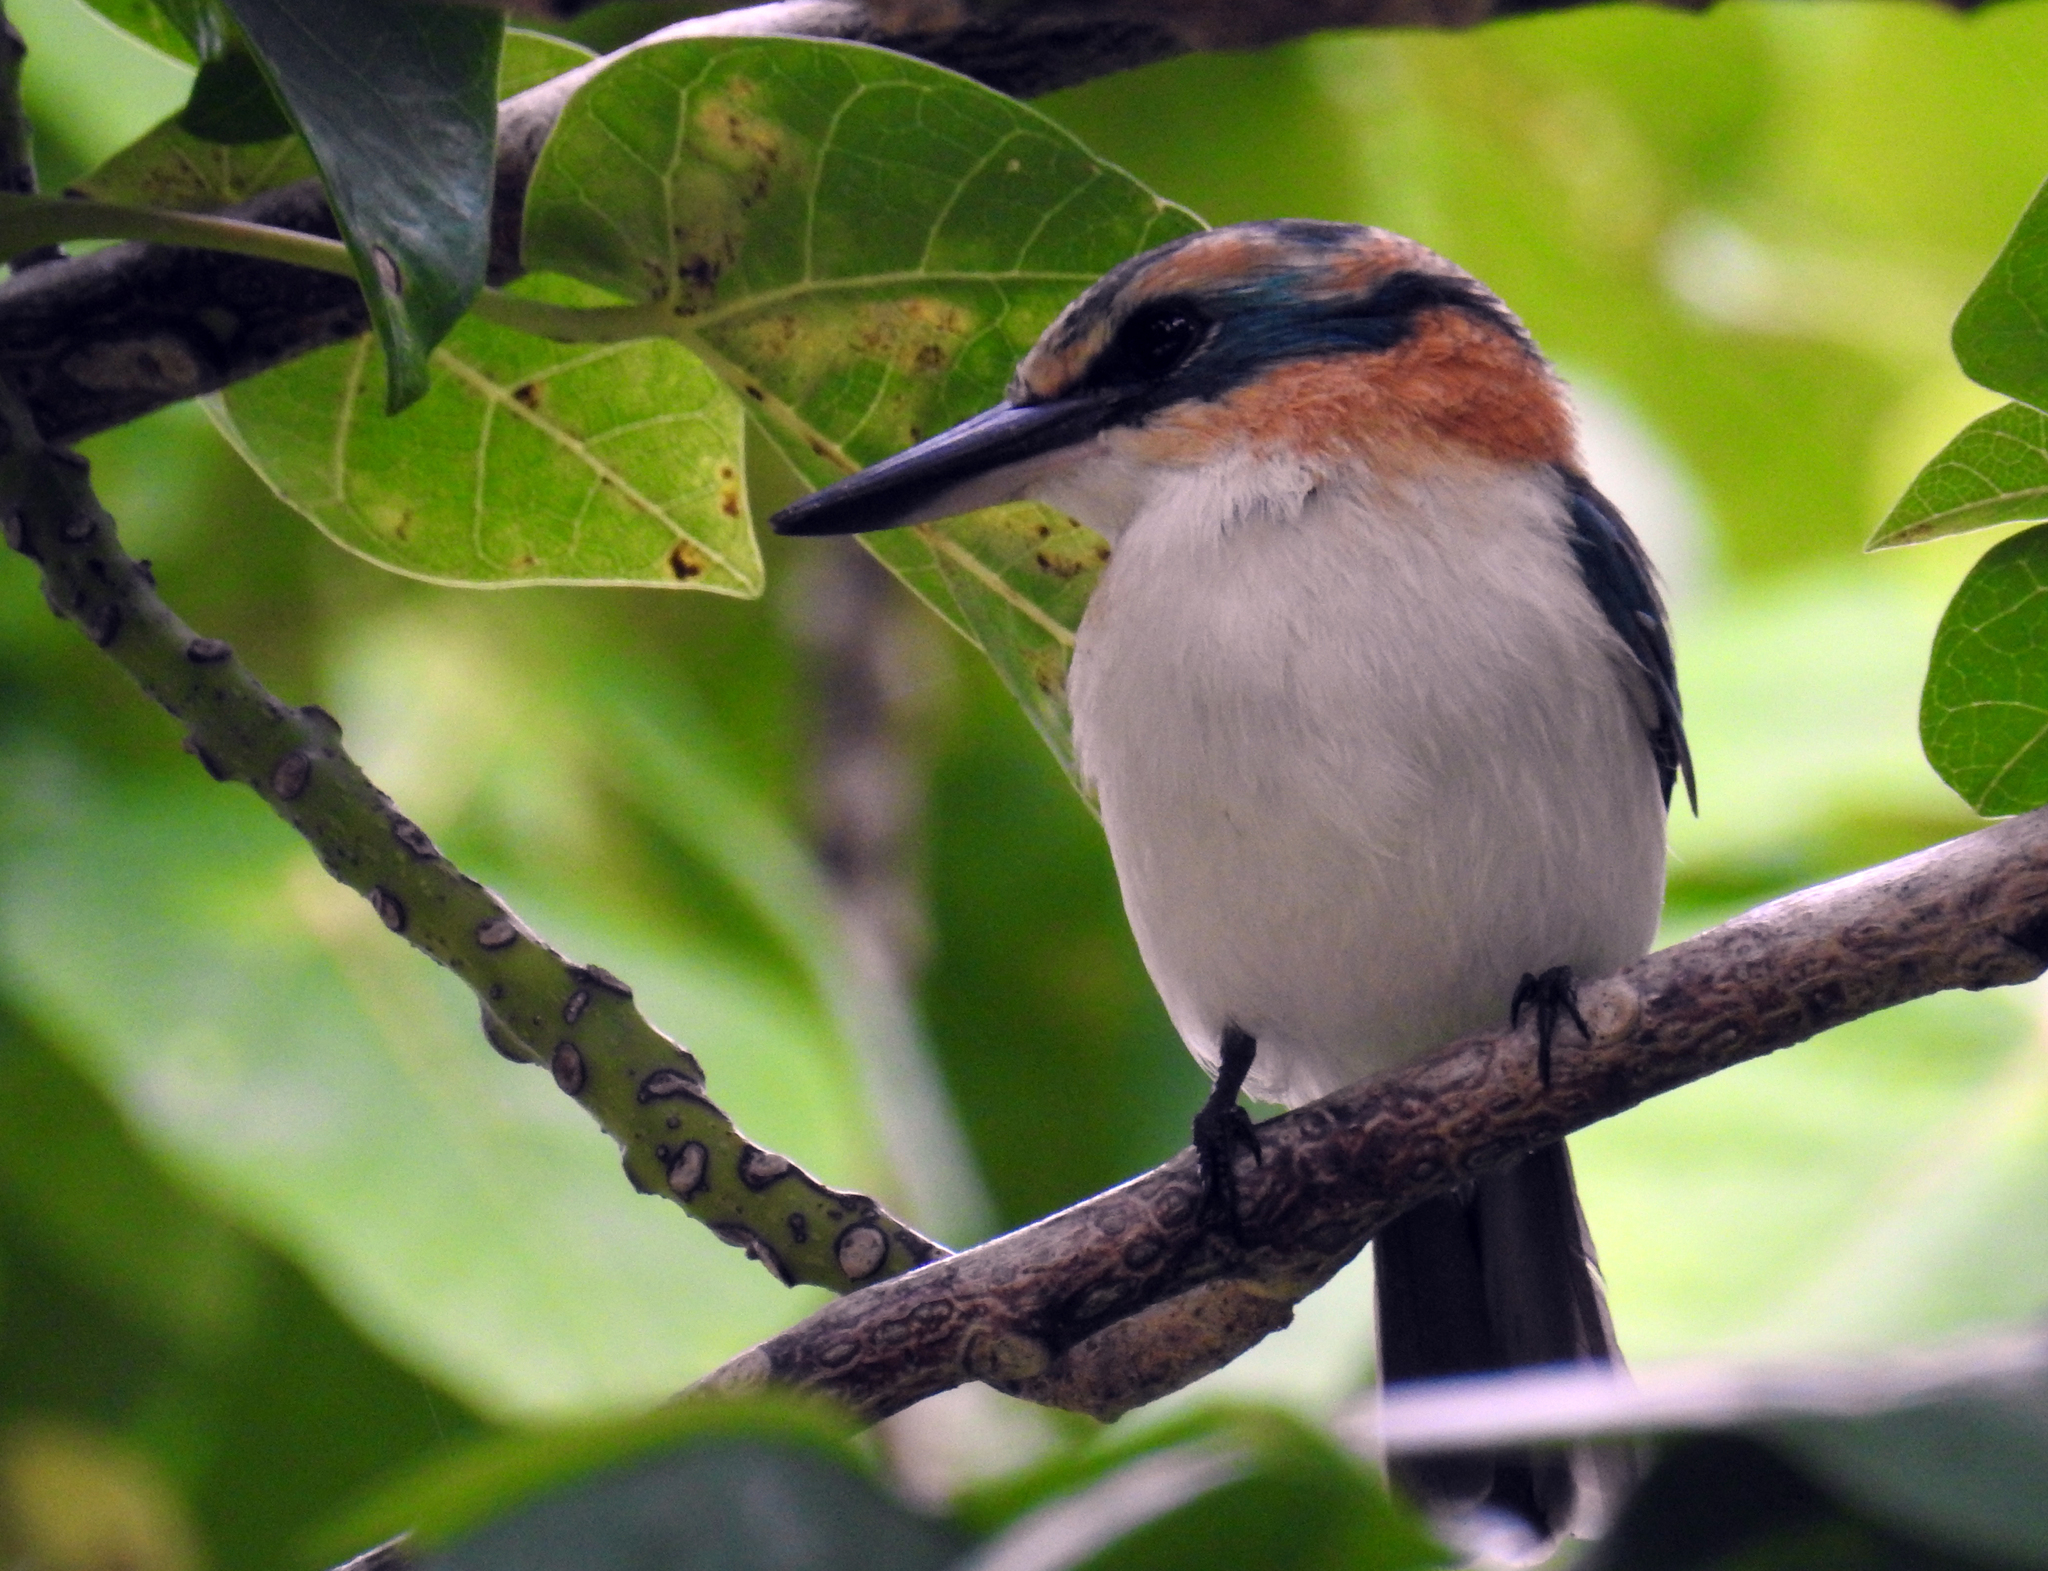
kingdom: Animalia
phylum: Chordata
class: Aves
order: Coraciiformes
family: Alcedinidae
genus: Todiramphus
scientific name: Todiramphus ruficollaris
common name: Mewing kingfisher
